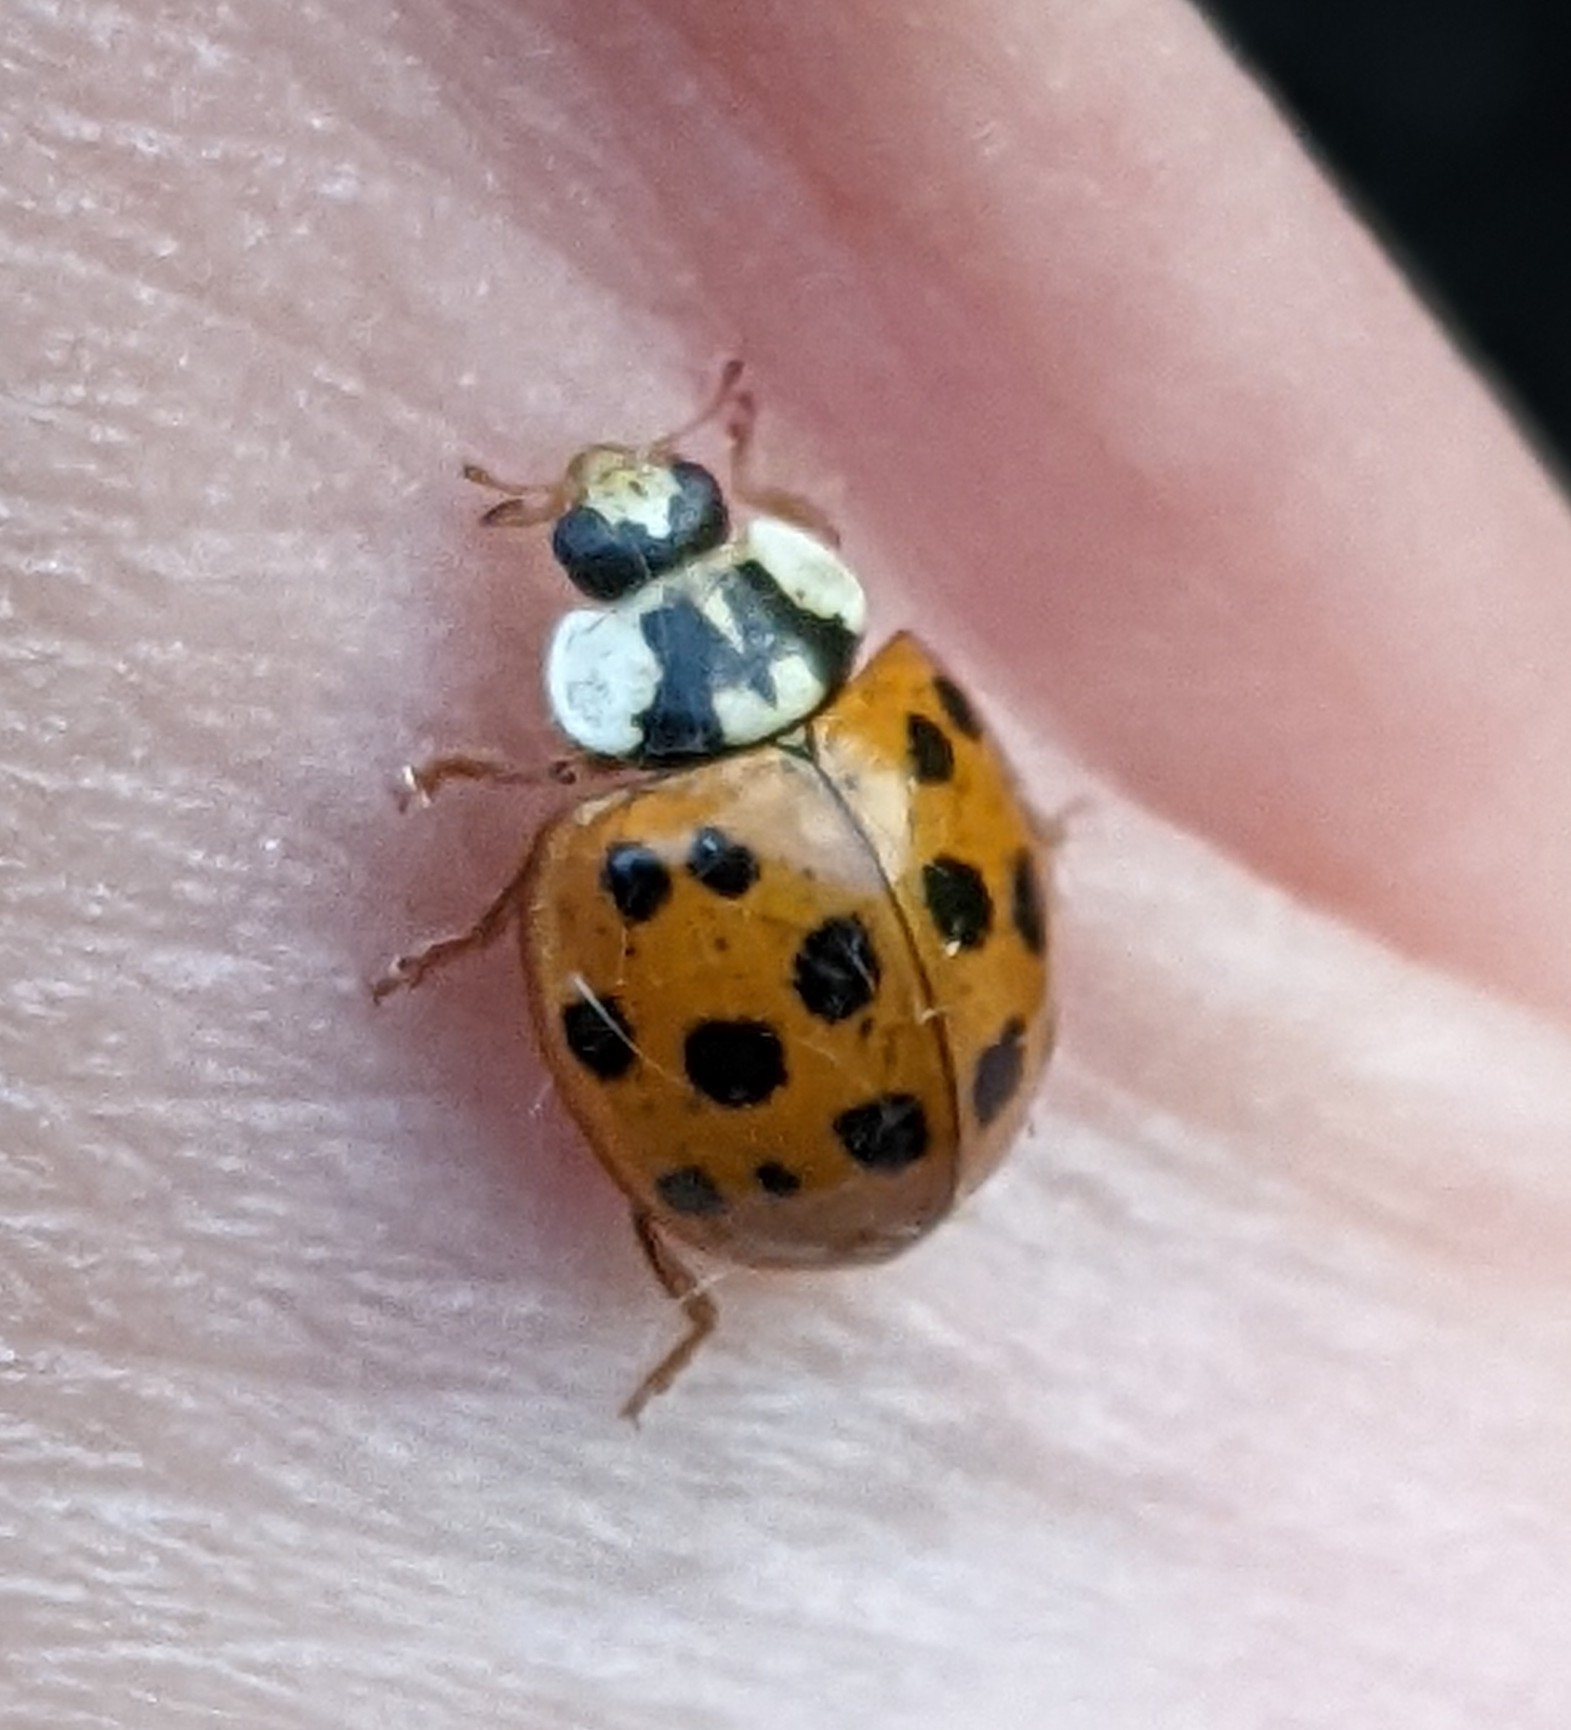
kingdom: Animalia
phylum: Arthropoda
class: Insecta
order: Coleoptera
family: Coccinellidae
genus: Harmonia
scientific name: Harmonia axyridis
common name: Harlequin ladybird
